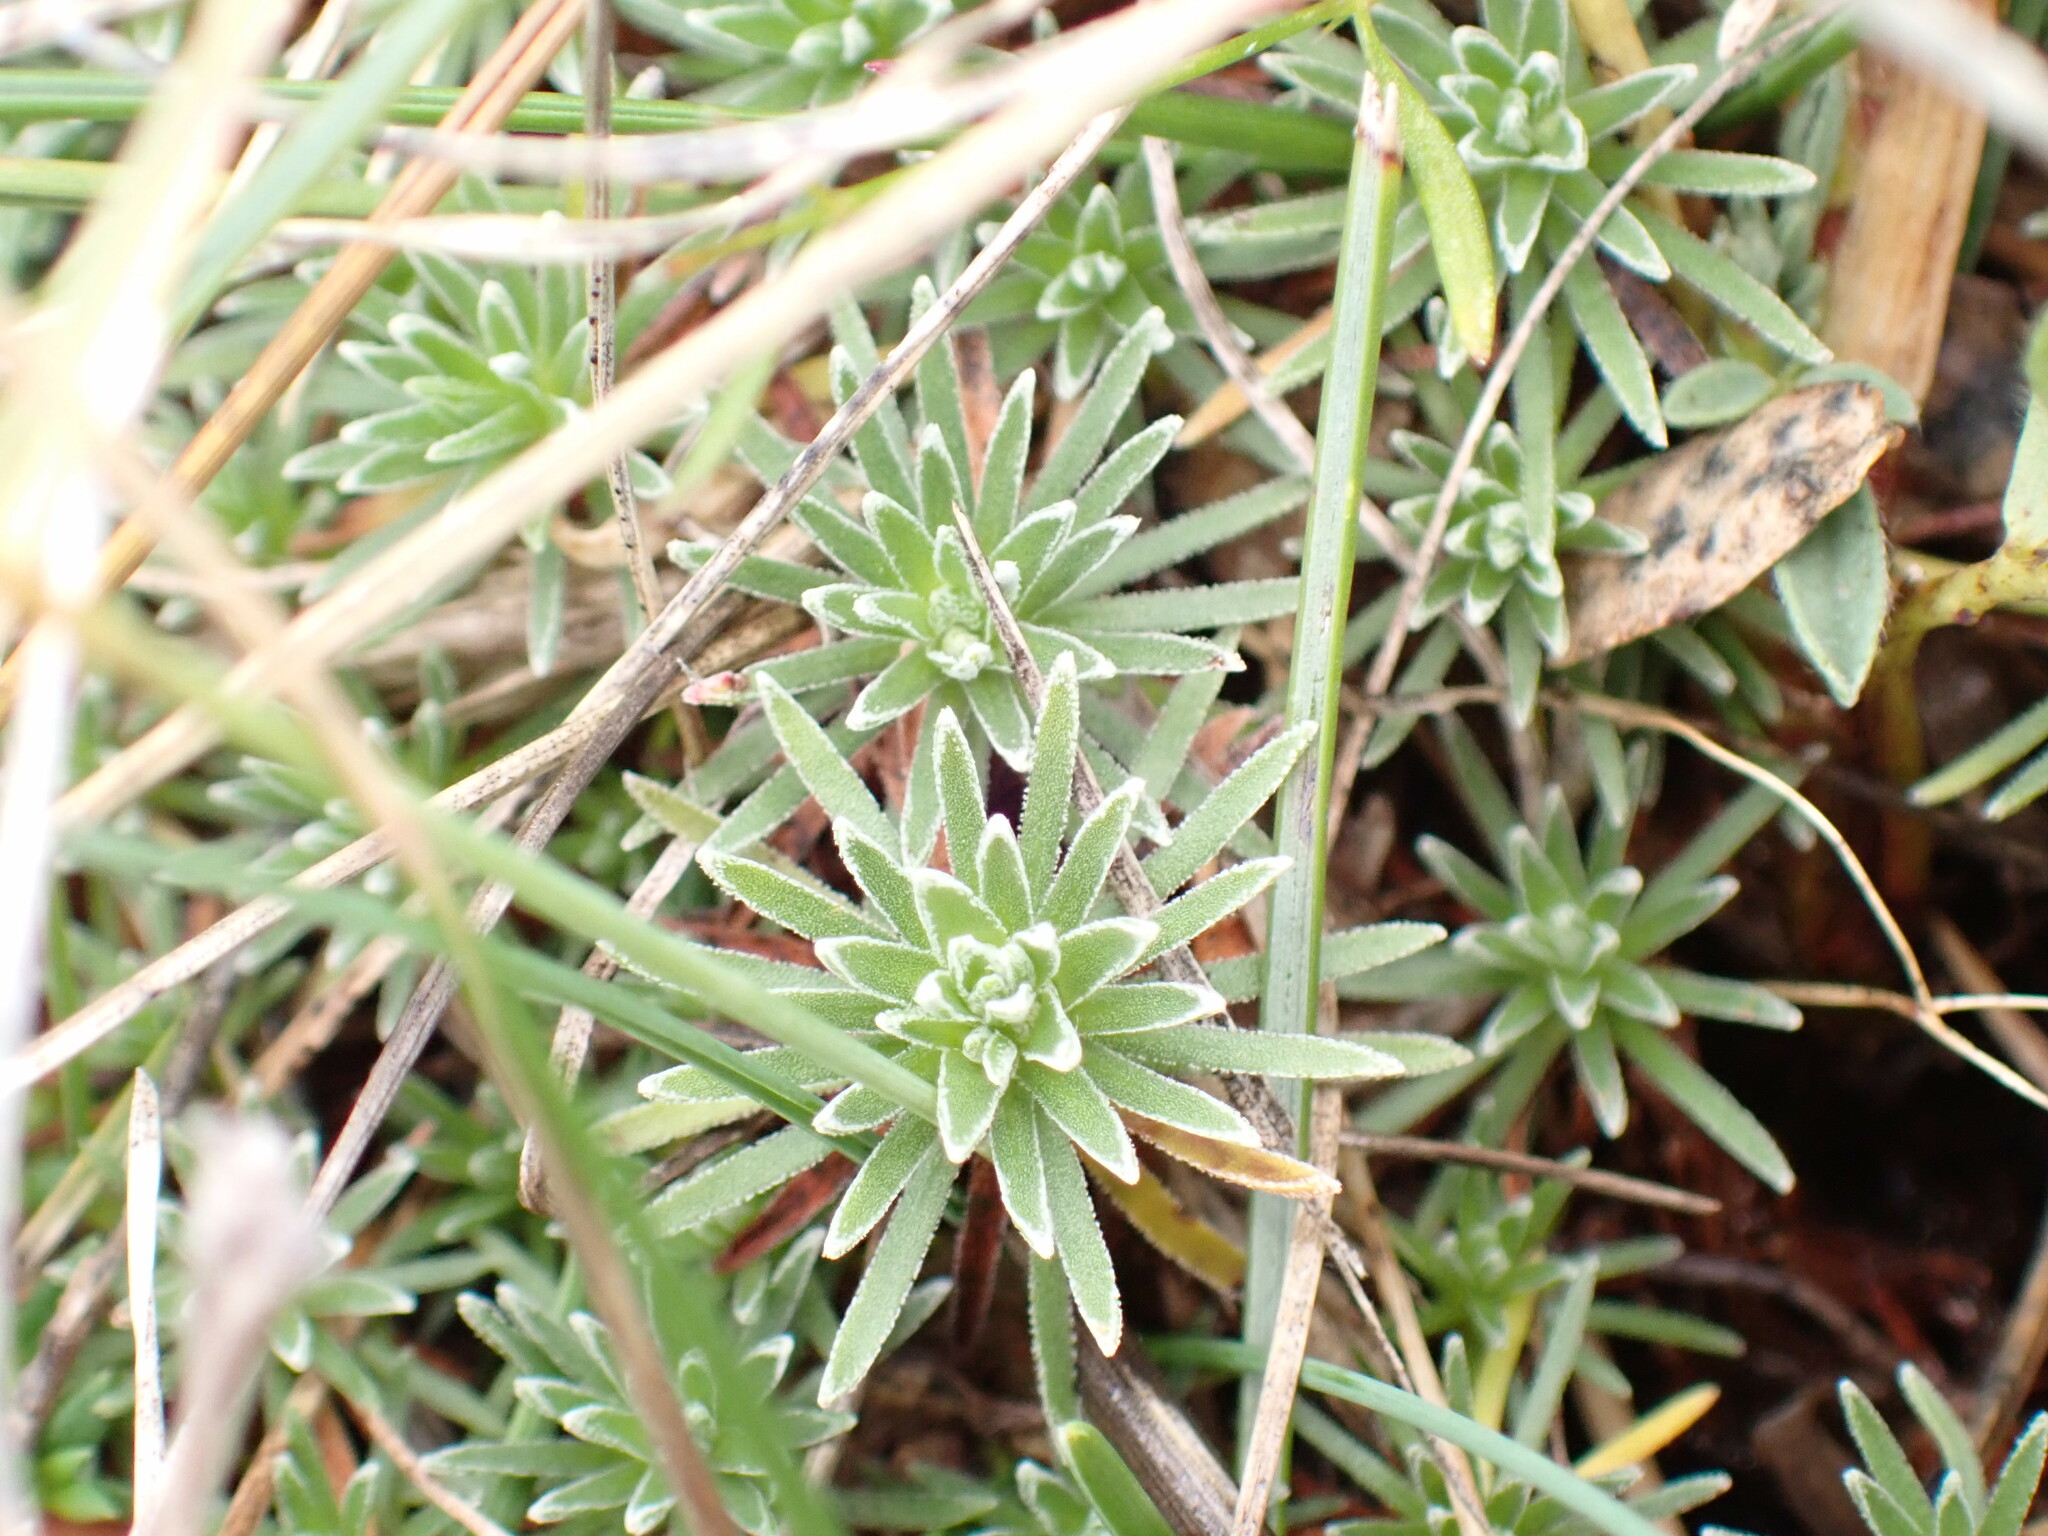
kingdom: Plantae
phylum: Tracheophyta
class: Magnoliopsida
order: Ericales
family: Primulaceae
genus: Androsace
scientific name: Androsace vitaliana
